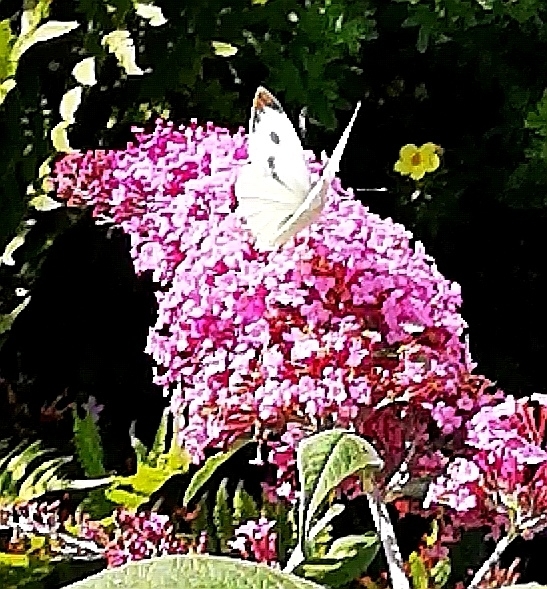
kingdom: Animalia
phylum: Arthropoda
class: Insecta
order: Lepidoptera
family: Pieridae
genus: Pieris
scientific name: Pieris brassicae
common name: Large white
